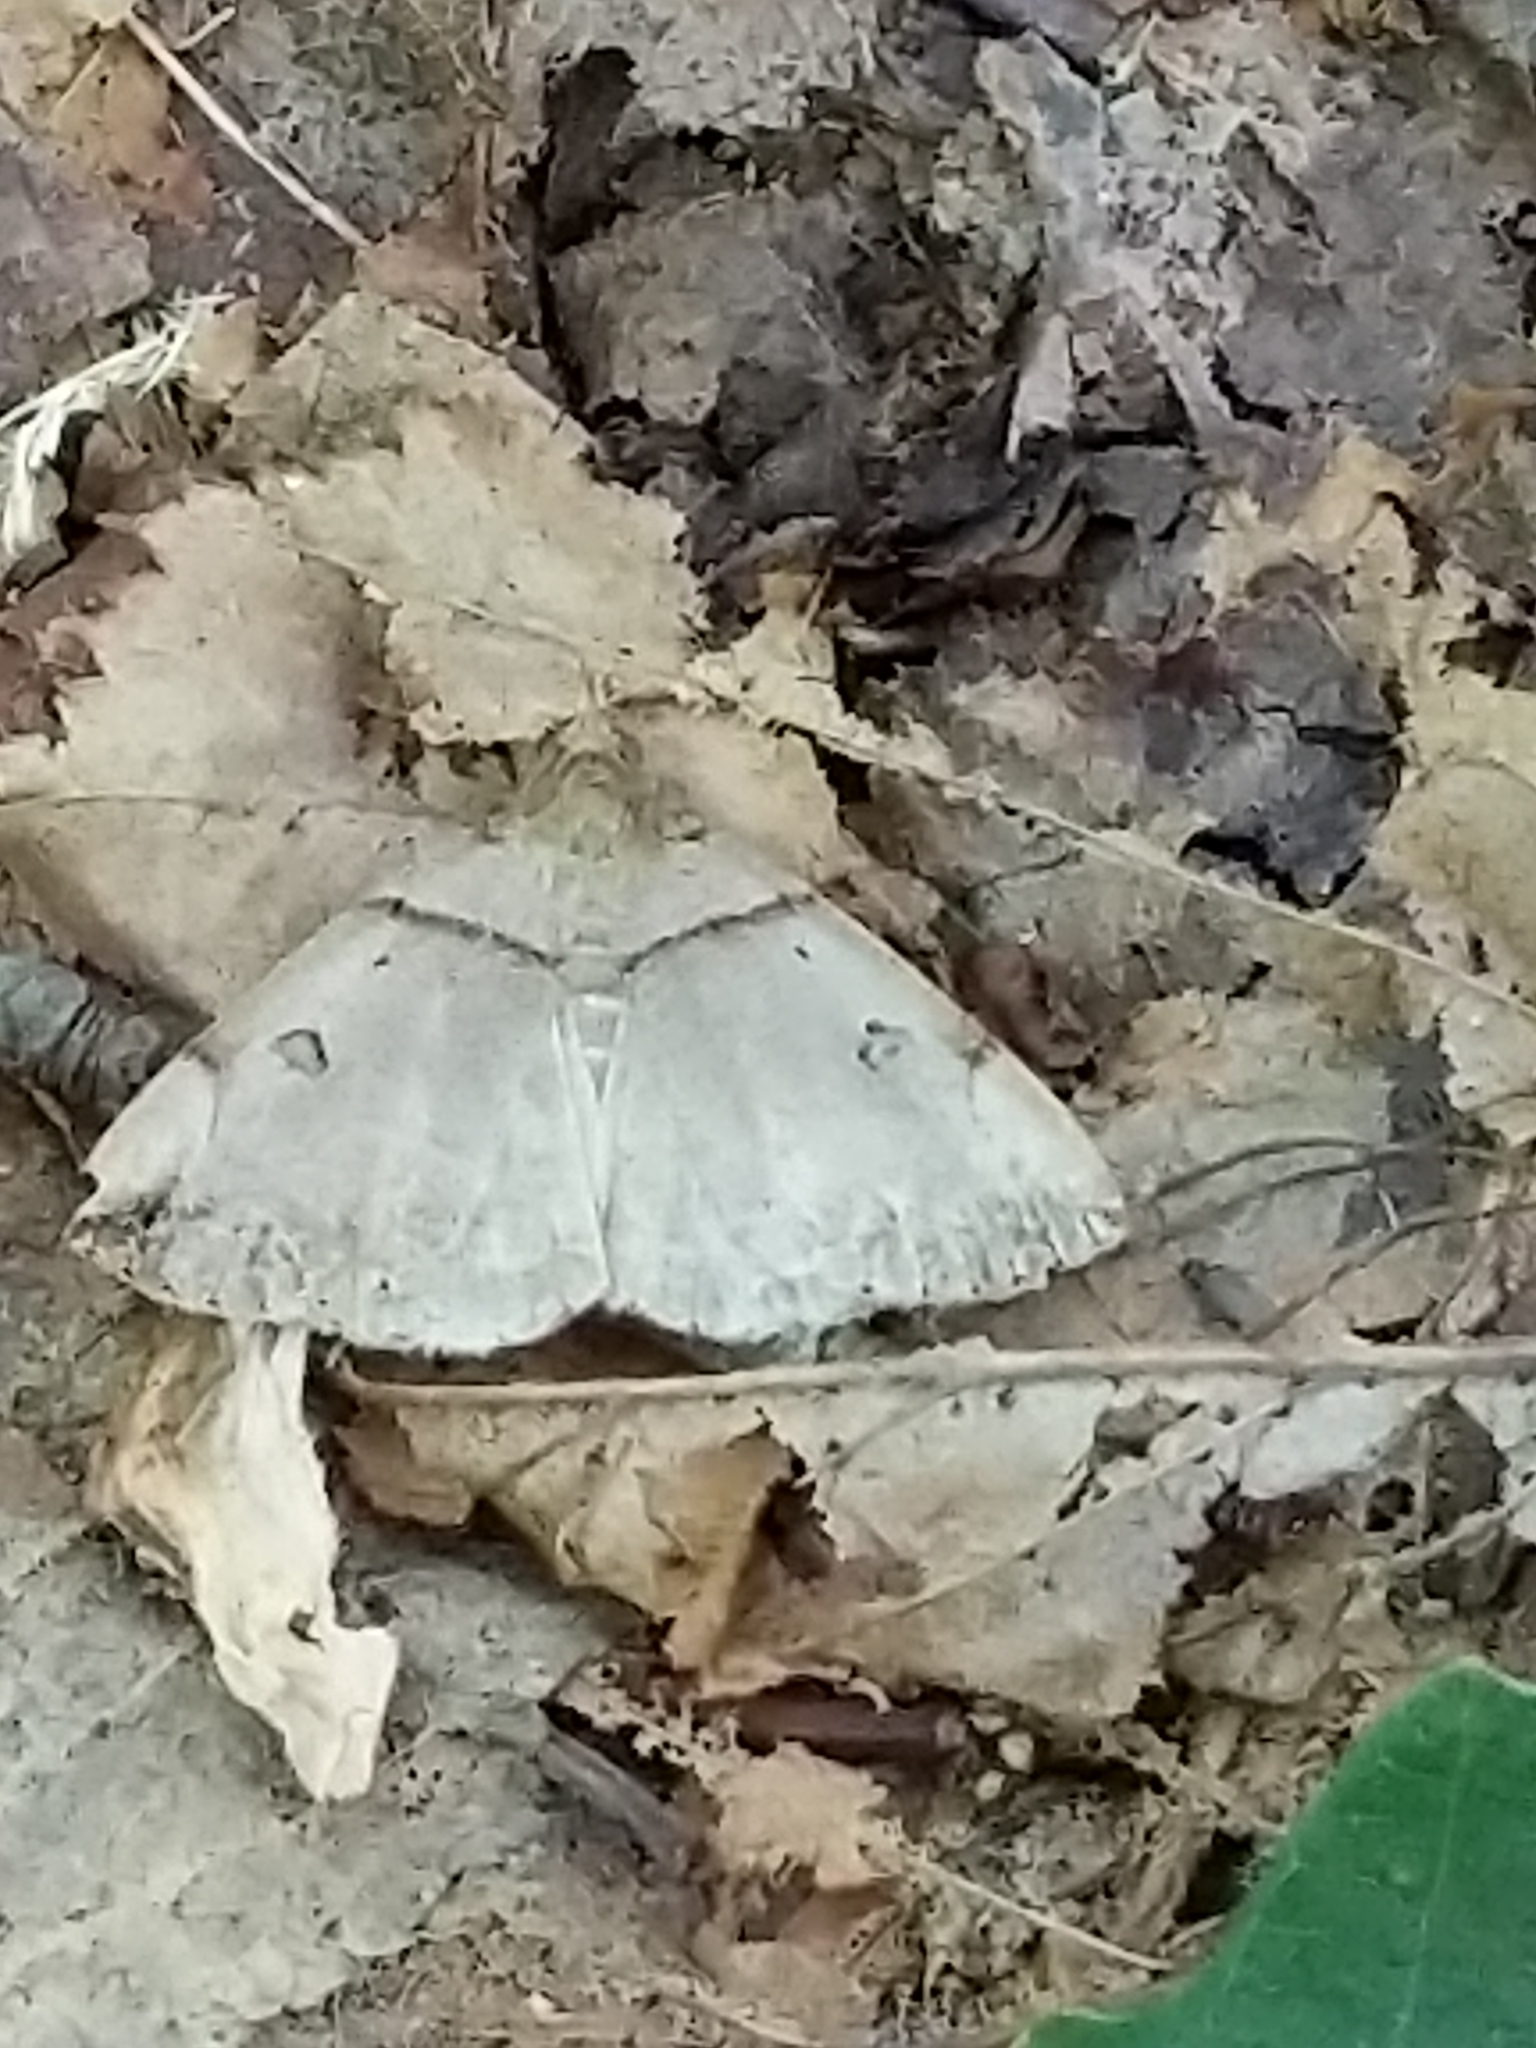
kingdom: Animalia
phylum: Arthropoda
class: Insecta
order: Lepidoptera
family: Erebidae
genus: Zanclognatha
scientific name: Zanclognatha laevigata
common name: Variable fan-foot
